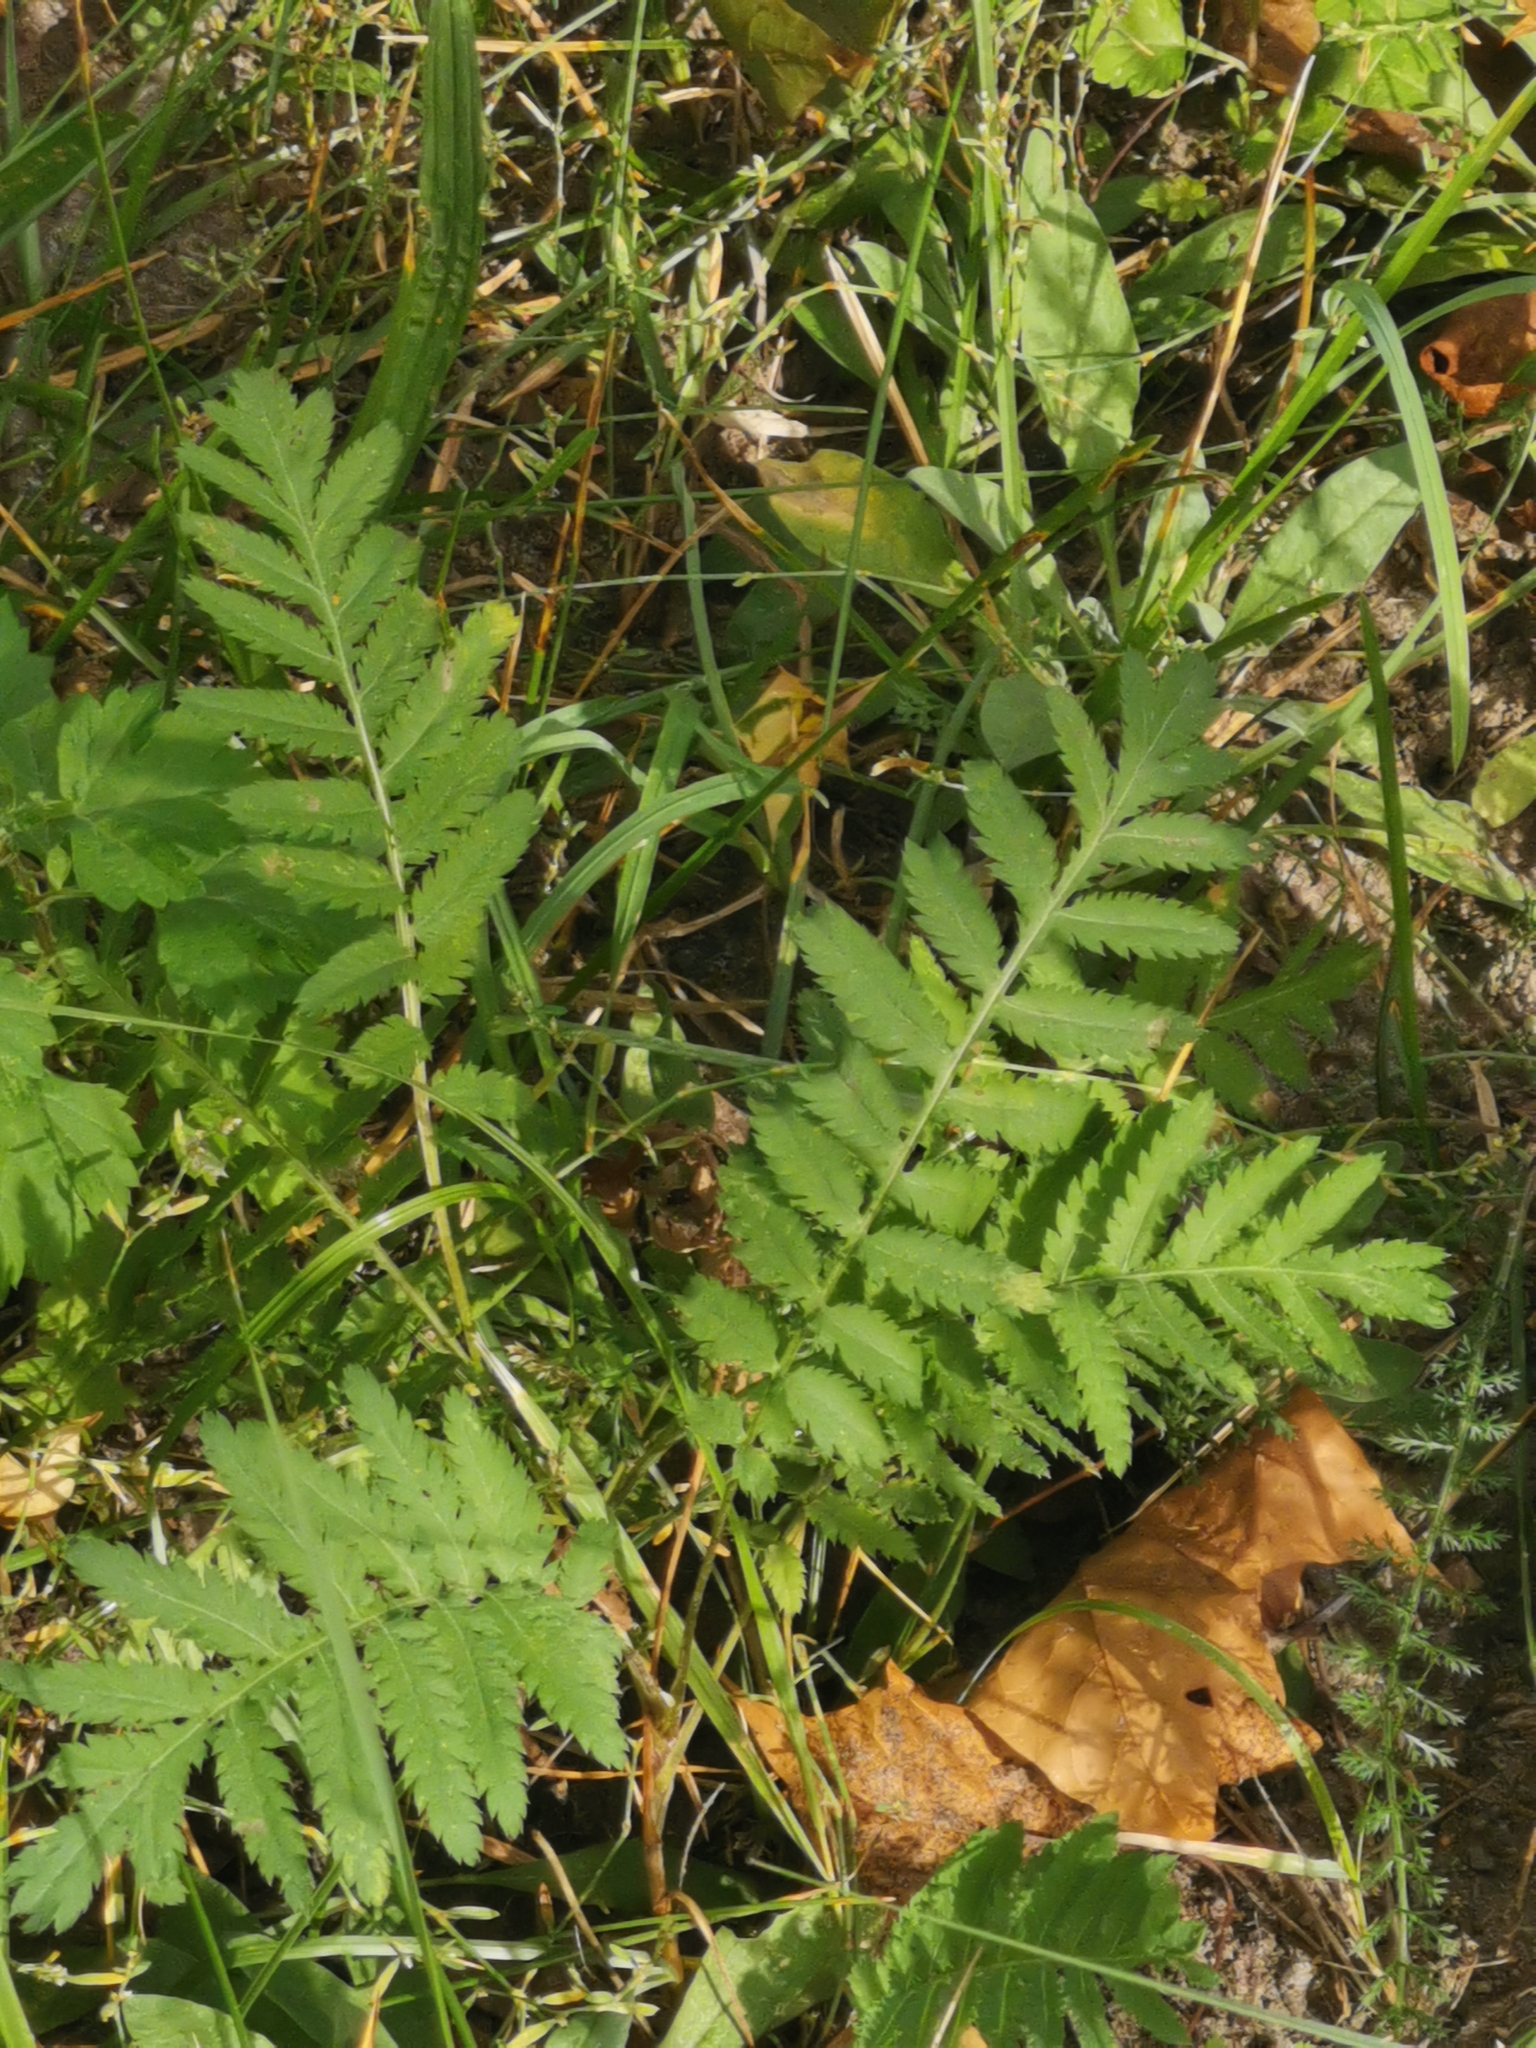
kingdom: Plantae
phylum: Tracheophyta
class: Magnoliopsida
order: Asterales
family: Asteraceae
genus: Tanacetum
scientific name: Tanacetum vulgare
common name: Common tansy
